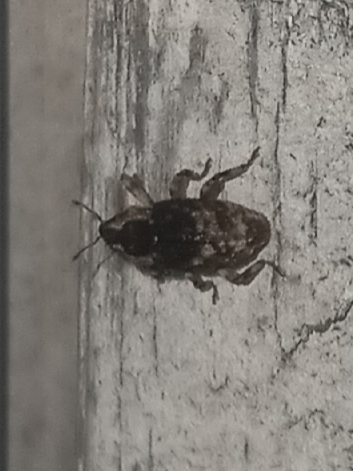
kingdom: Animalia
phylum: Arthropoda
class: Insecta
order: Coleoptera
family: Curculionidae
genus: Cophes
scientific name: Cophes fallax
